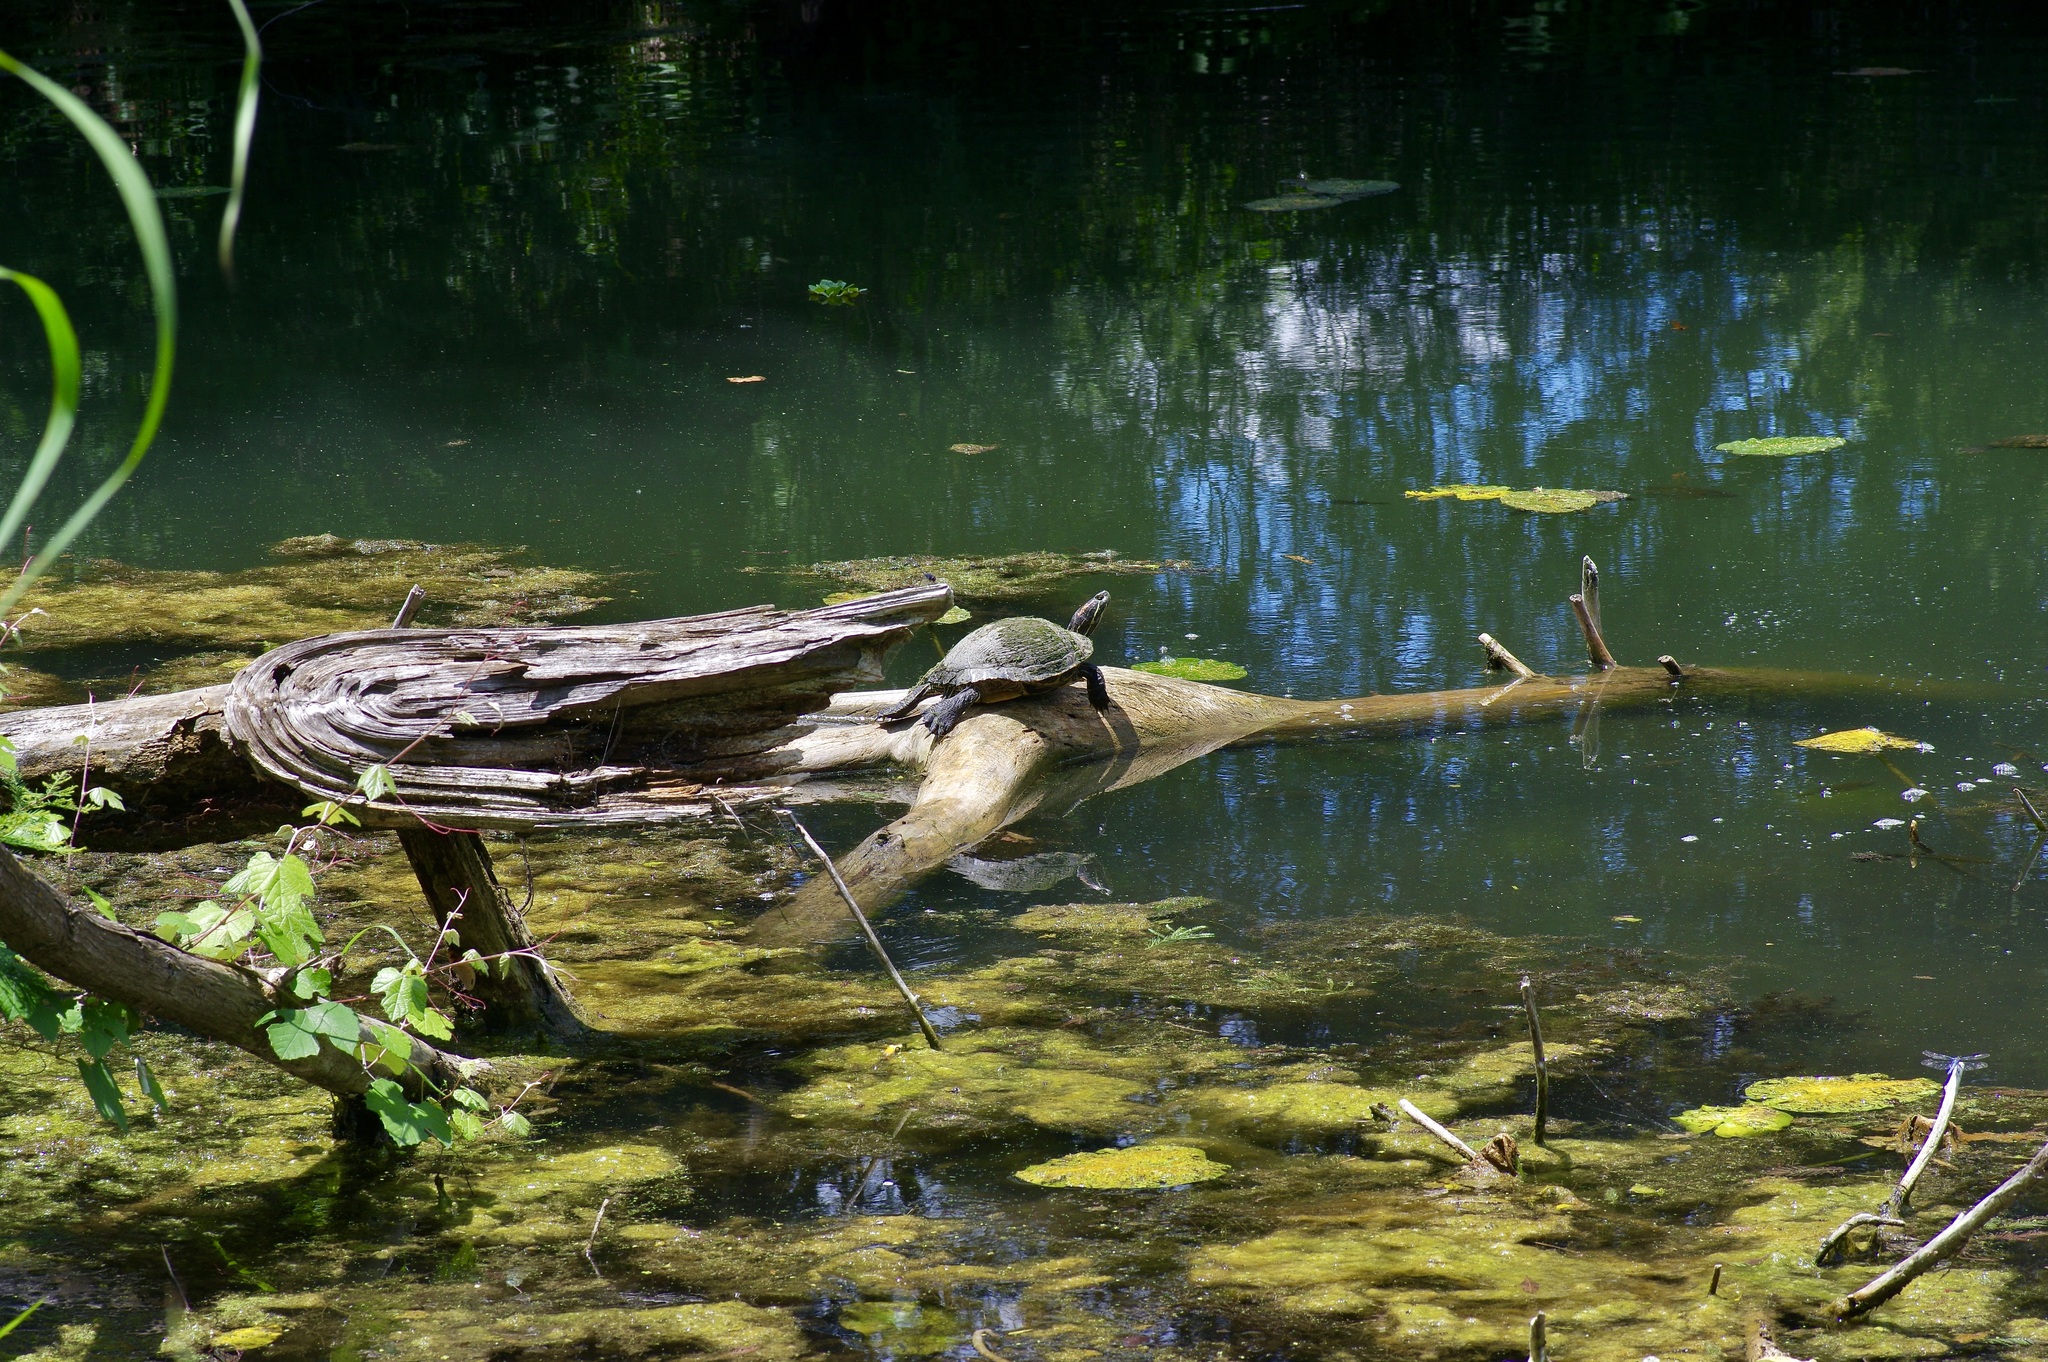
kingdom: Animalia
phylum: Chordata
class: Testudines
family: Emydidae
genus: Trachemys
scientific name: Trachemys scripta
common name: Slider
